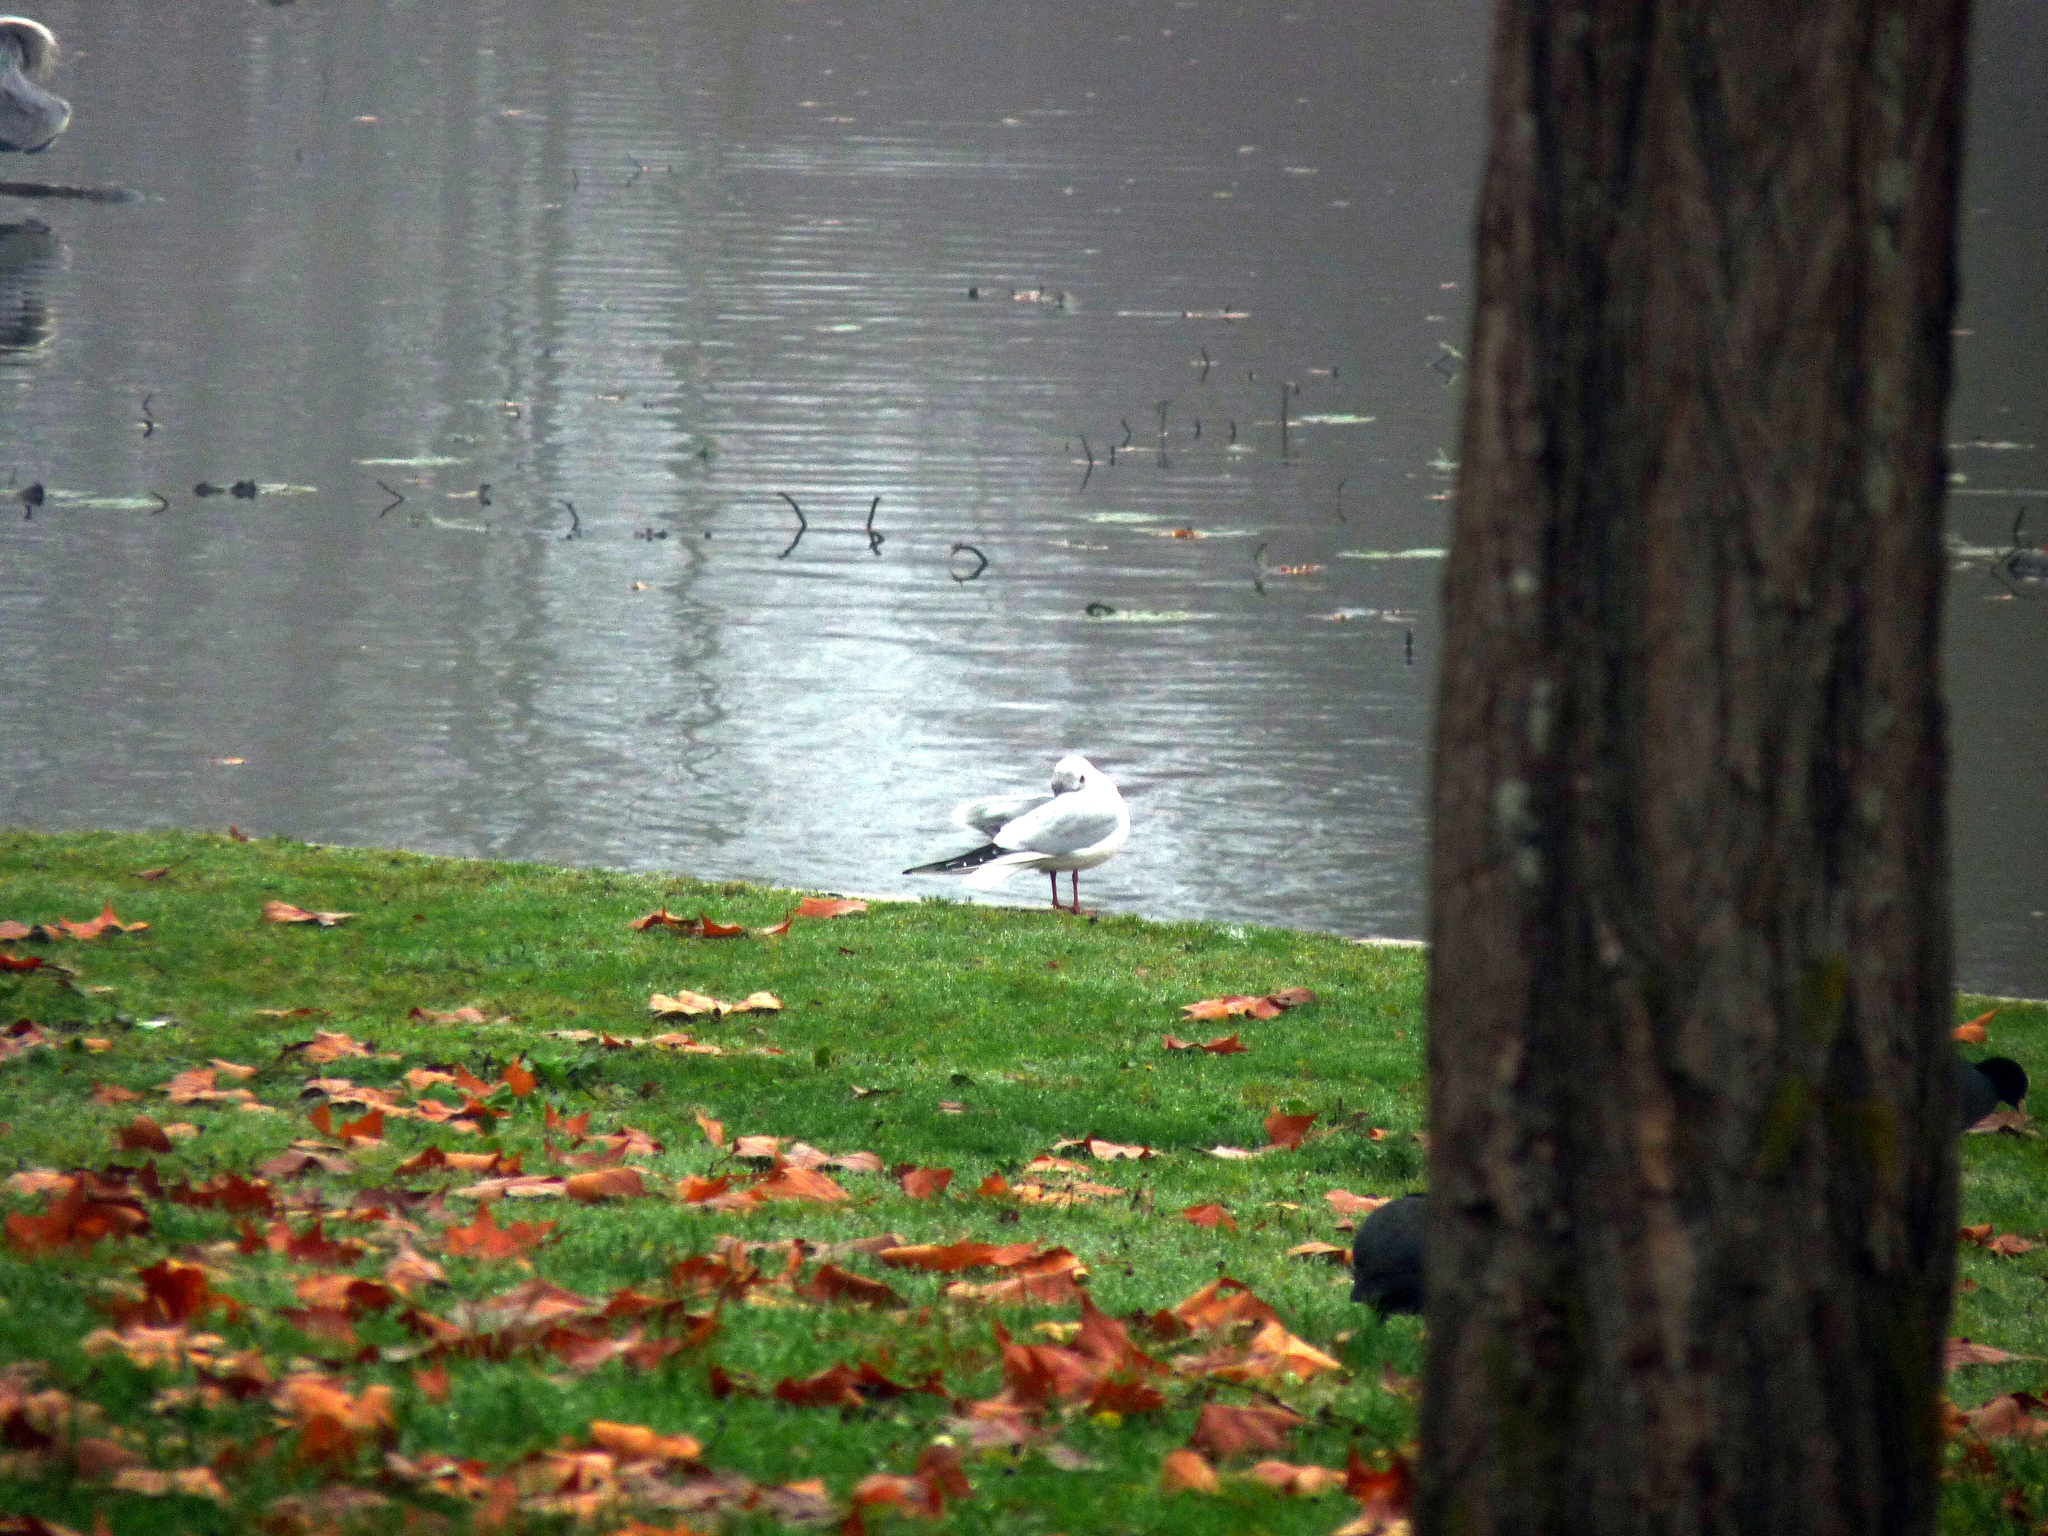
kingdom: Animalia
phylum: Chordata
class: Aves
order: Charadriiformes
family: Laridae
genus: Chroicocephalus
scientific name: Chroicocephalus ridibundus
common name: Black-headed gull
